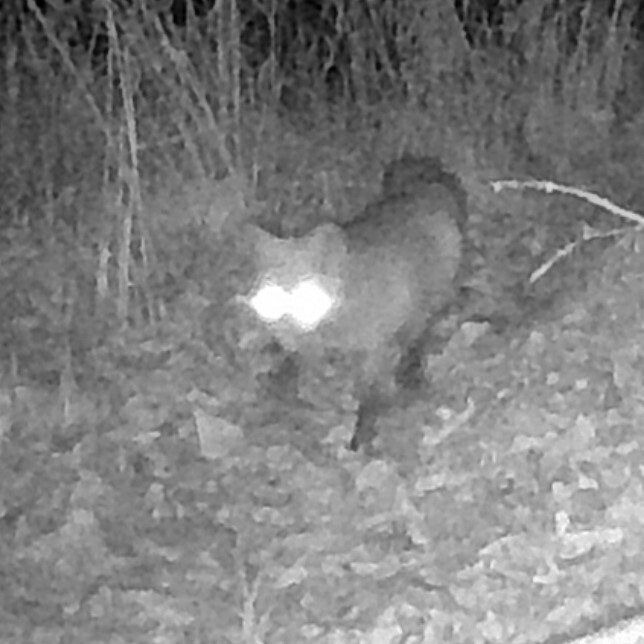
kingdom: Animalia
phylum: Chordata
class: Mammalia
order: Carnivora
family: Canidae
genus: Vulpes
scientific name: Vulpes vulpes
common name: Red fox
